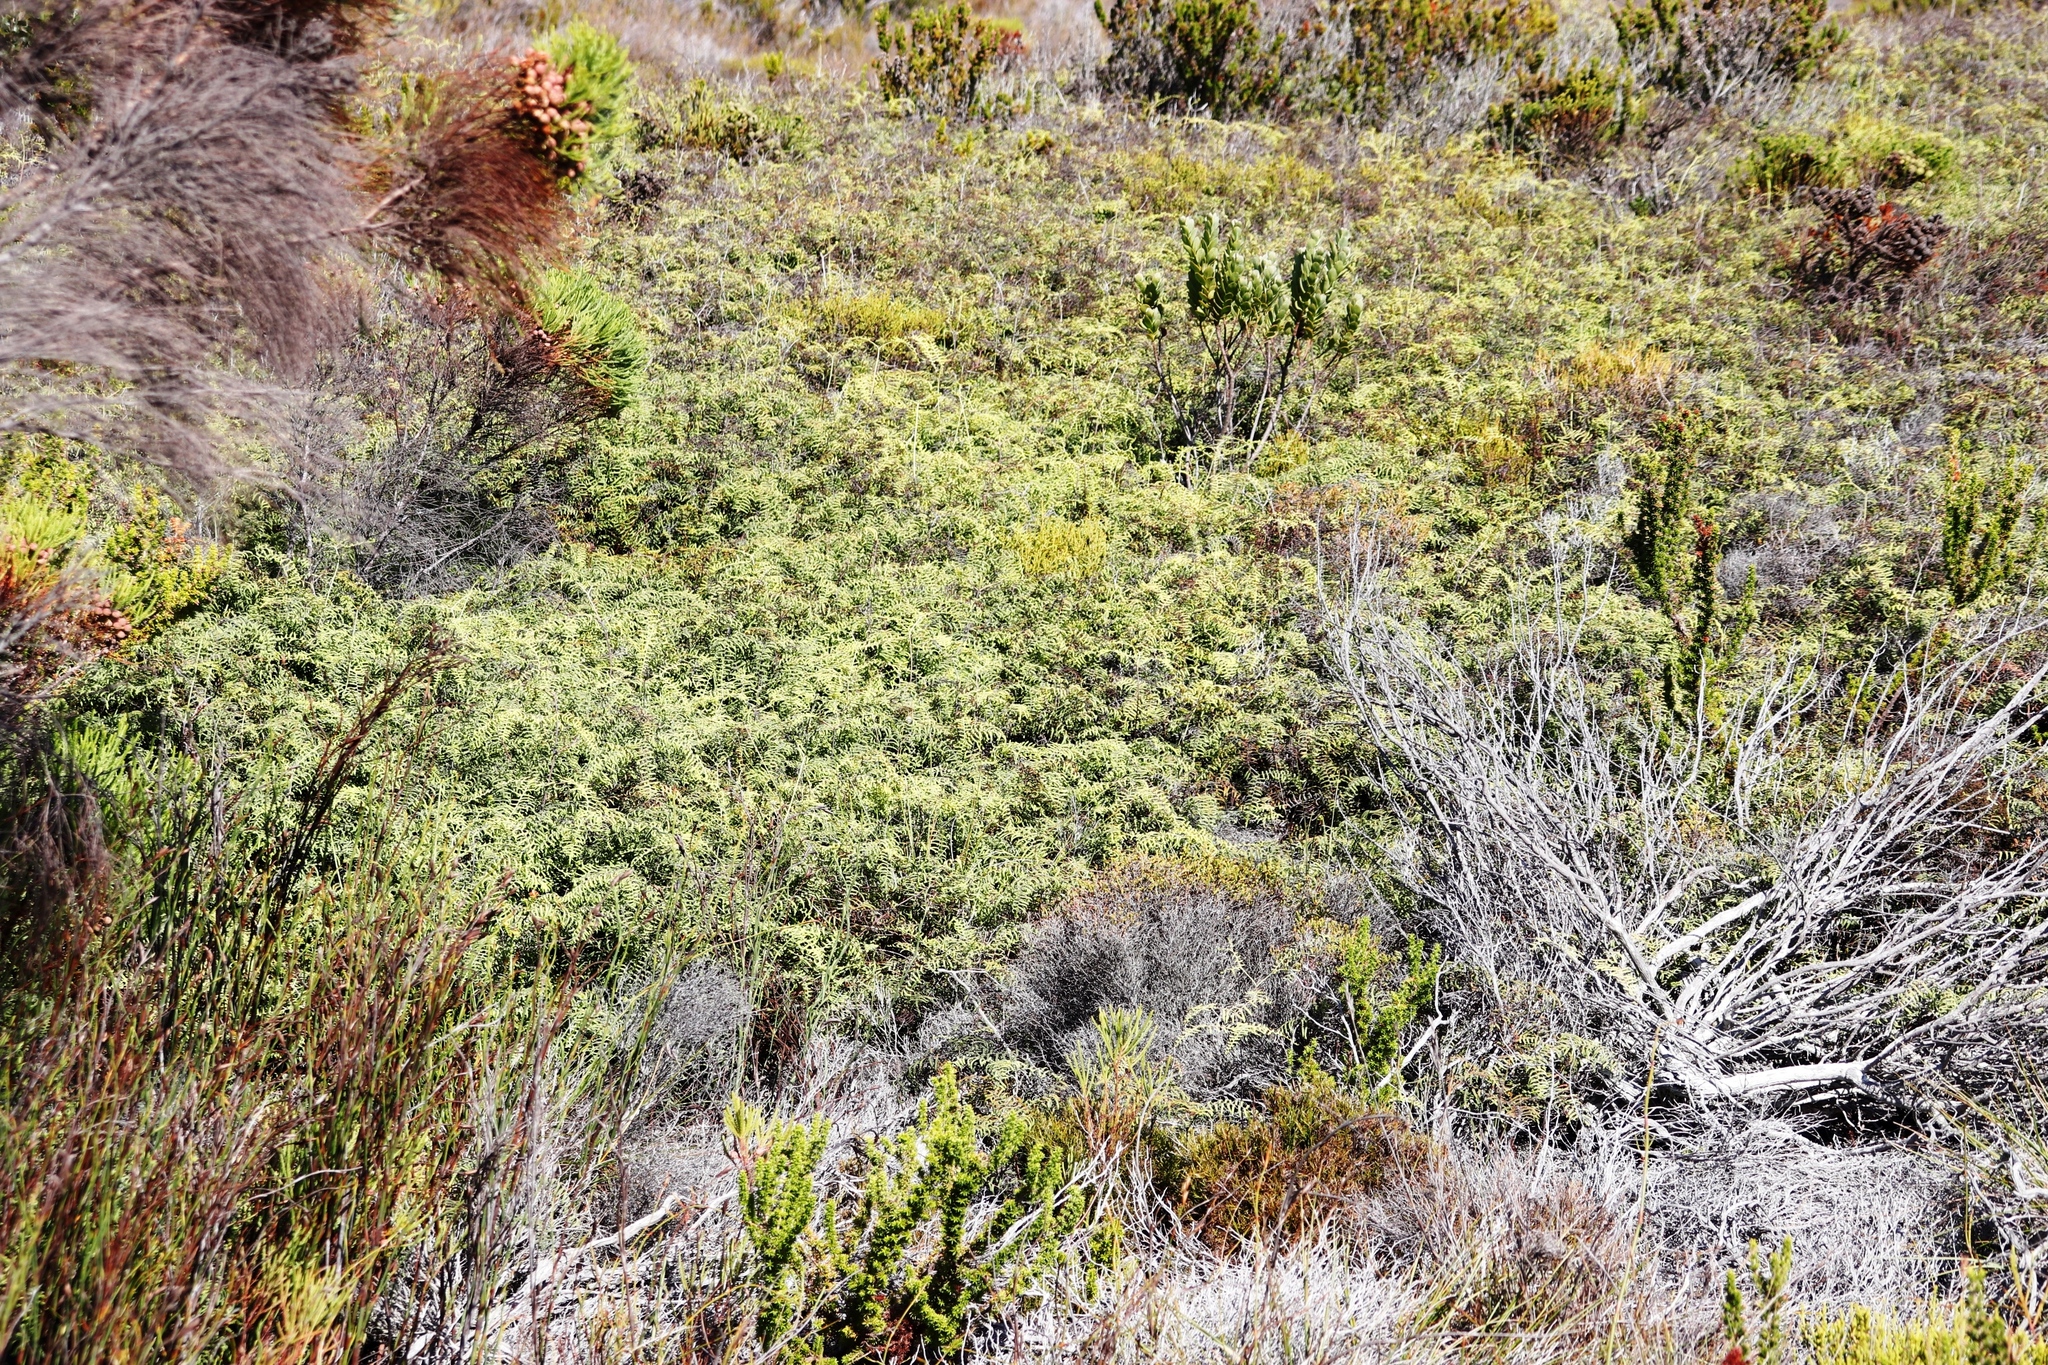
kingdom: Plantae
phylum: Tracheophyta
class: Polypodiopsida
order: Gleicheniales
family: Gleicheniaceae
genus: Gleichenia
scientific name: Gleichenia polypodioides
